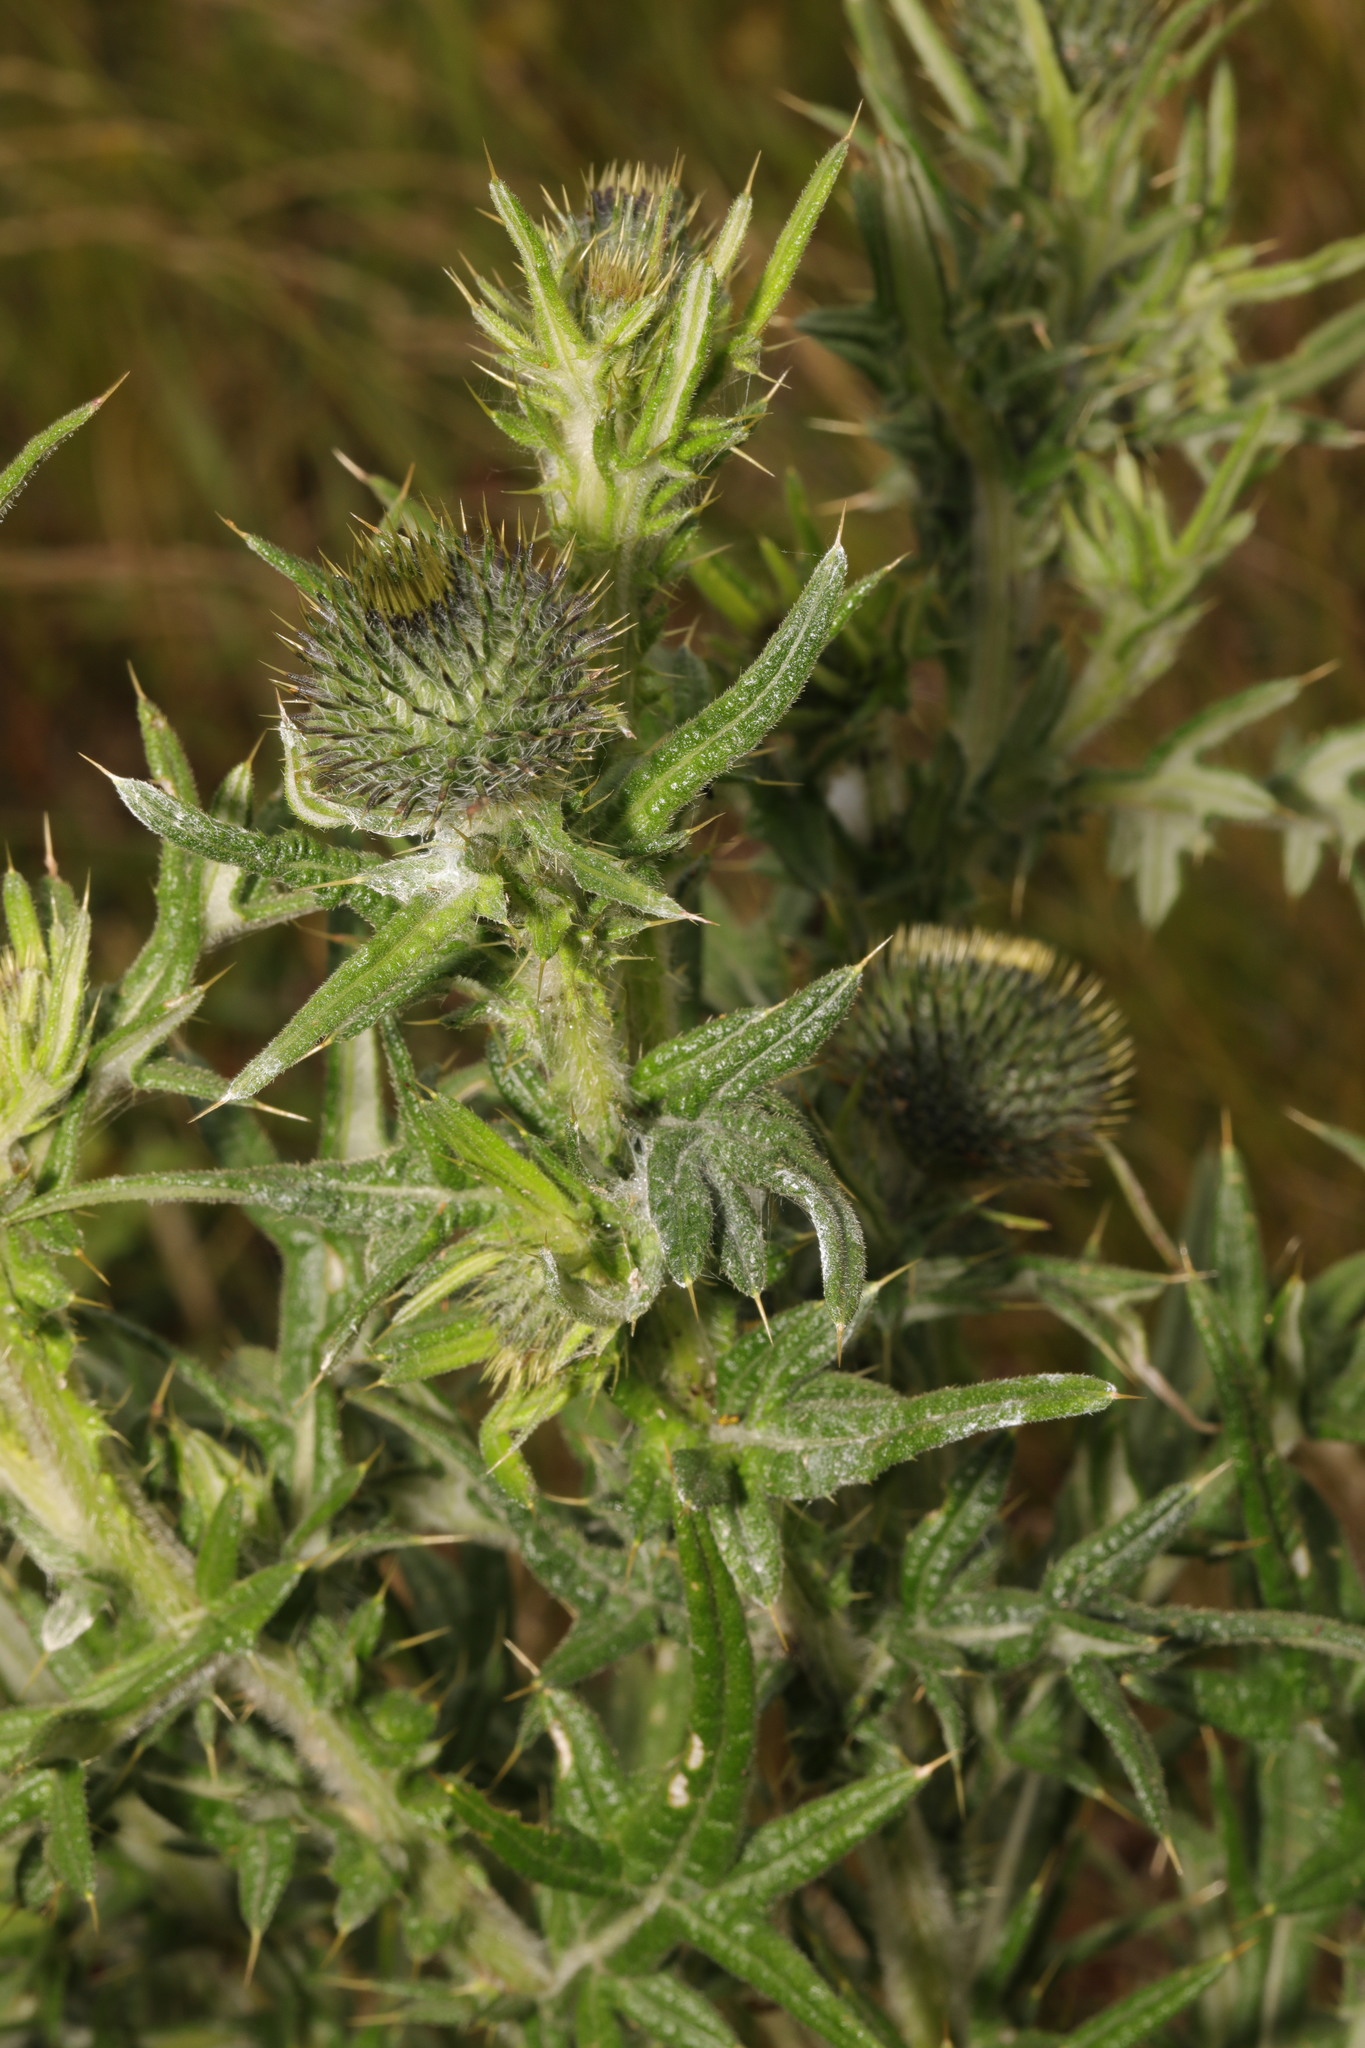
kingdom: Plantae
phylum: Tracheophyta
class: Magnoliopsida
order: Asterales
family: Asteraceae
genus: Cirsium
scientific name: Cirsium vulgare
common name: Bull thistle
